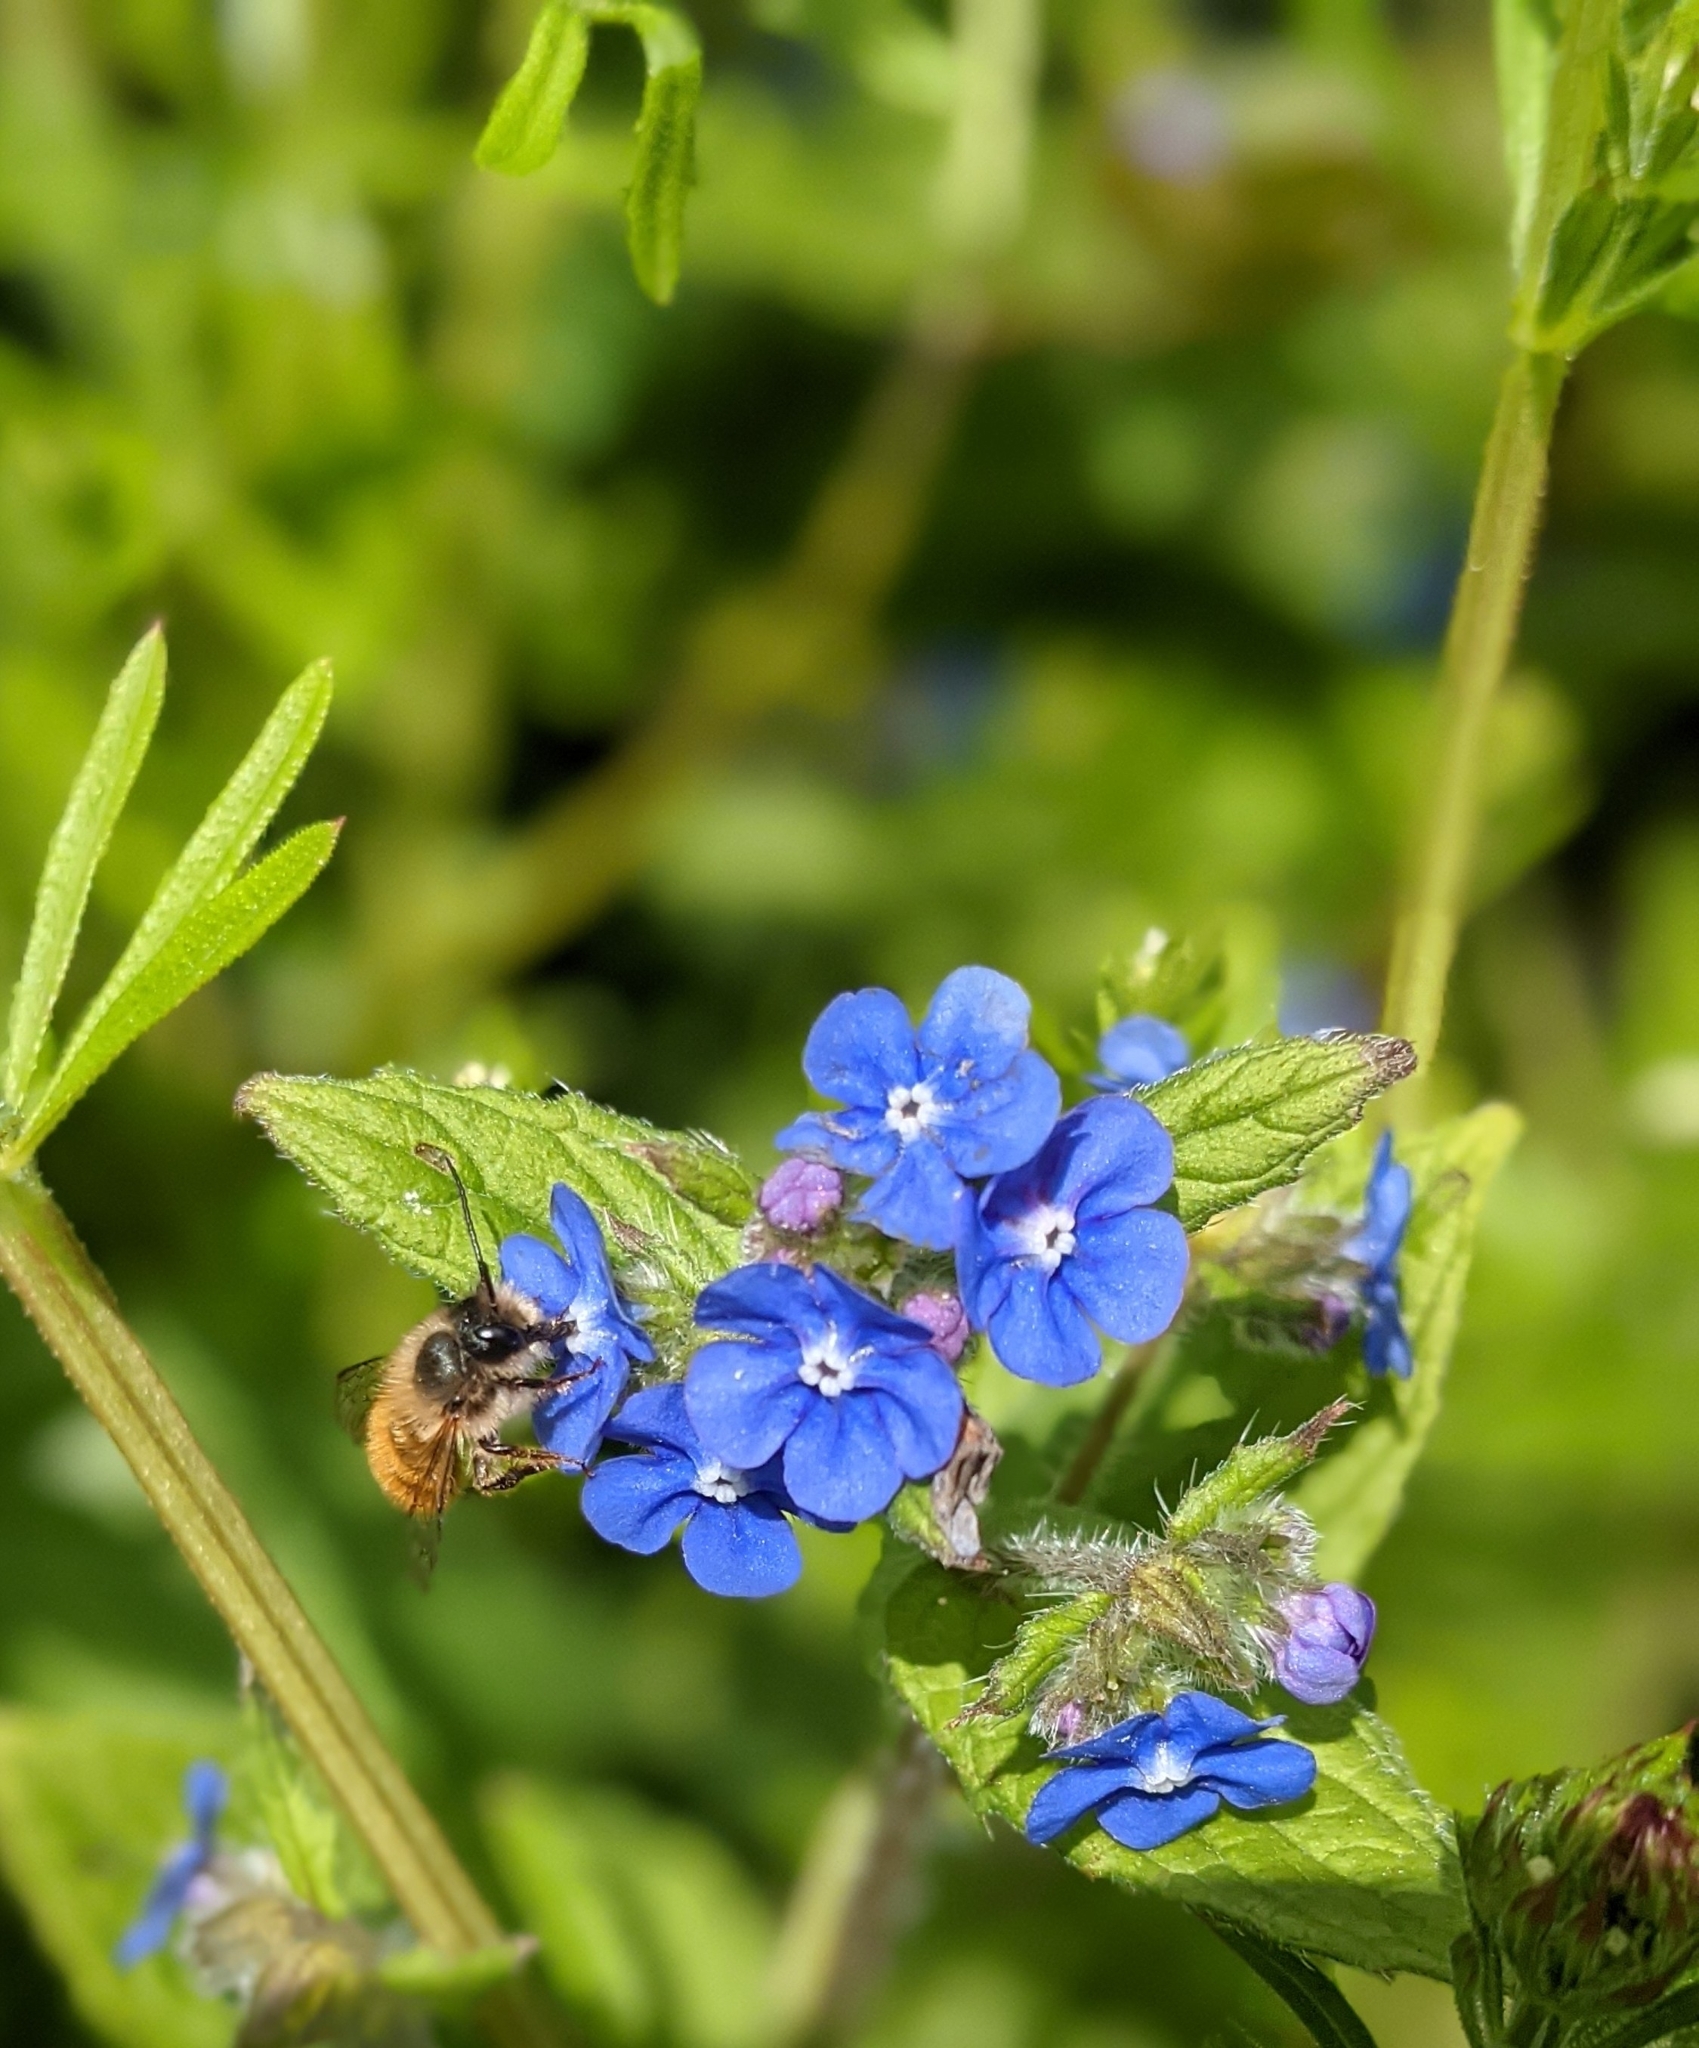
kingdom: Animalia
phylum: Arthropoda
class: Insecta
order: Hymenoptera
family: Megachilidae
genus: Osmia
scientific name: Osmia bicornis
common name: Red mason bee
